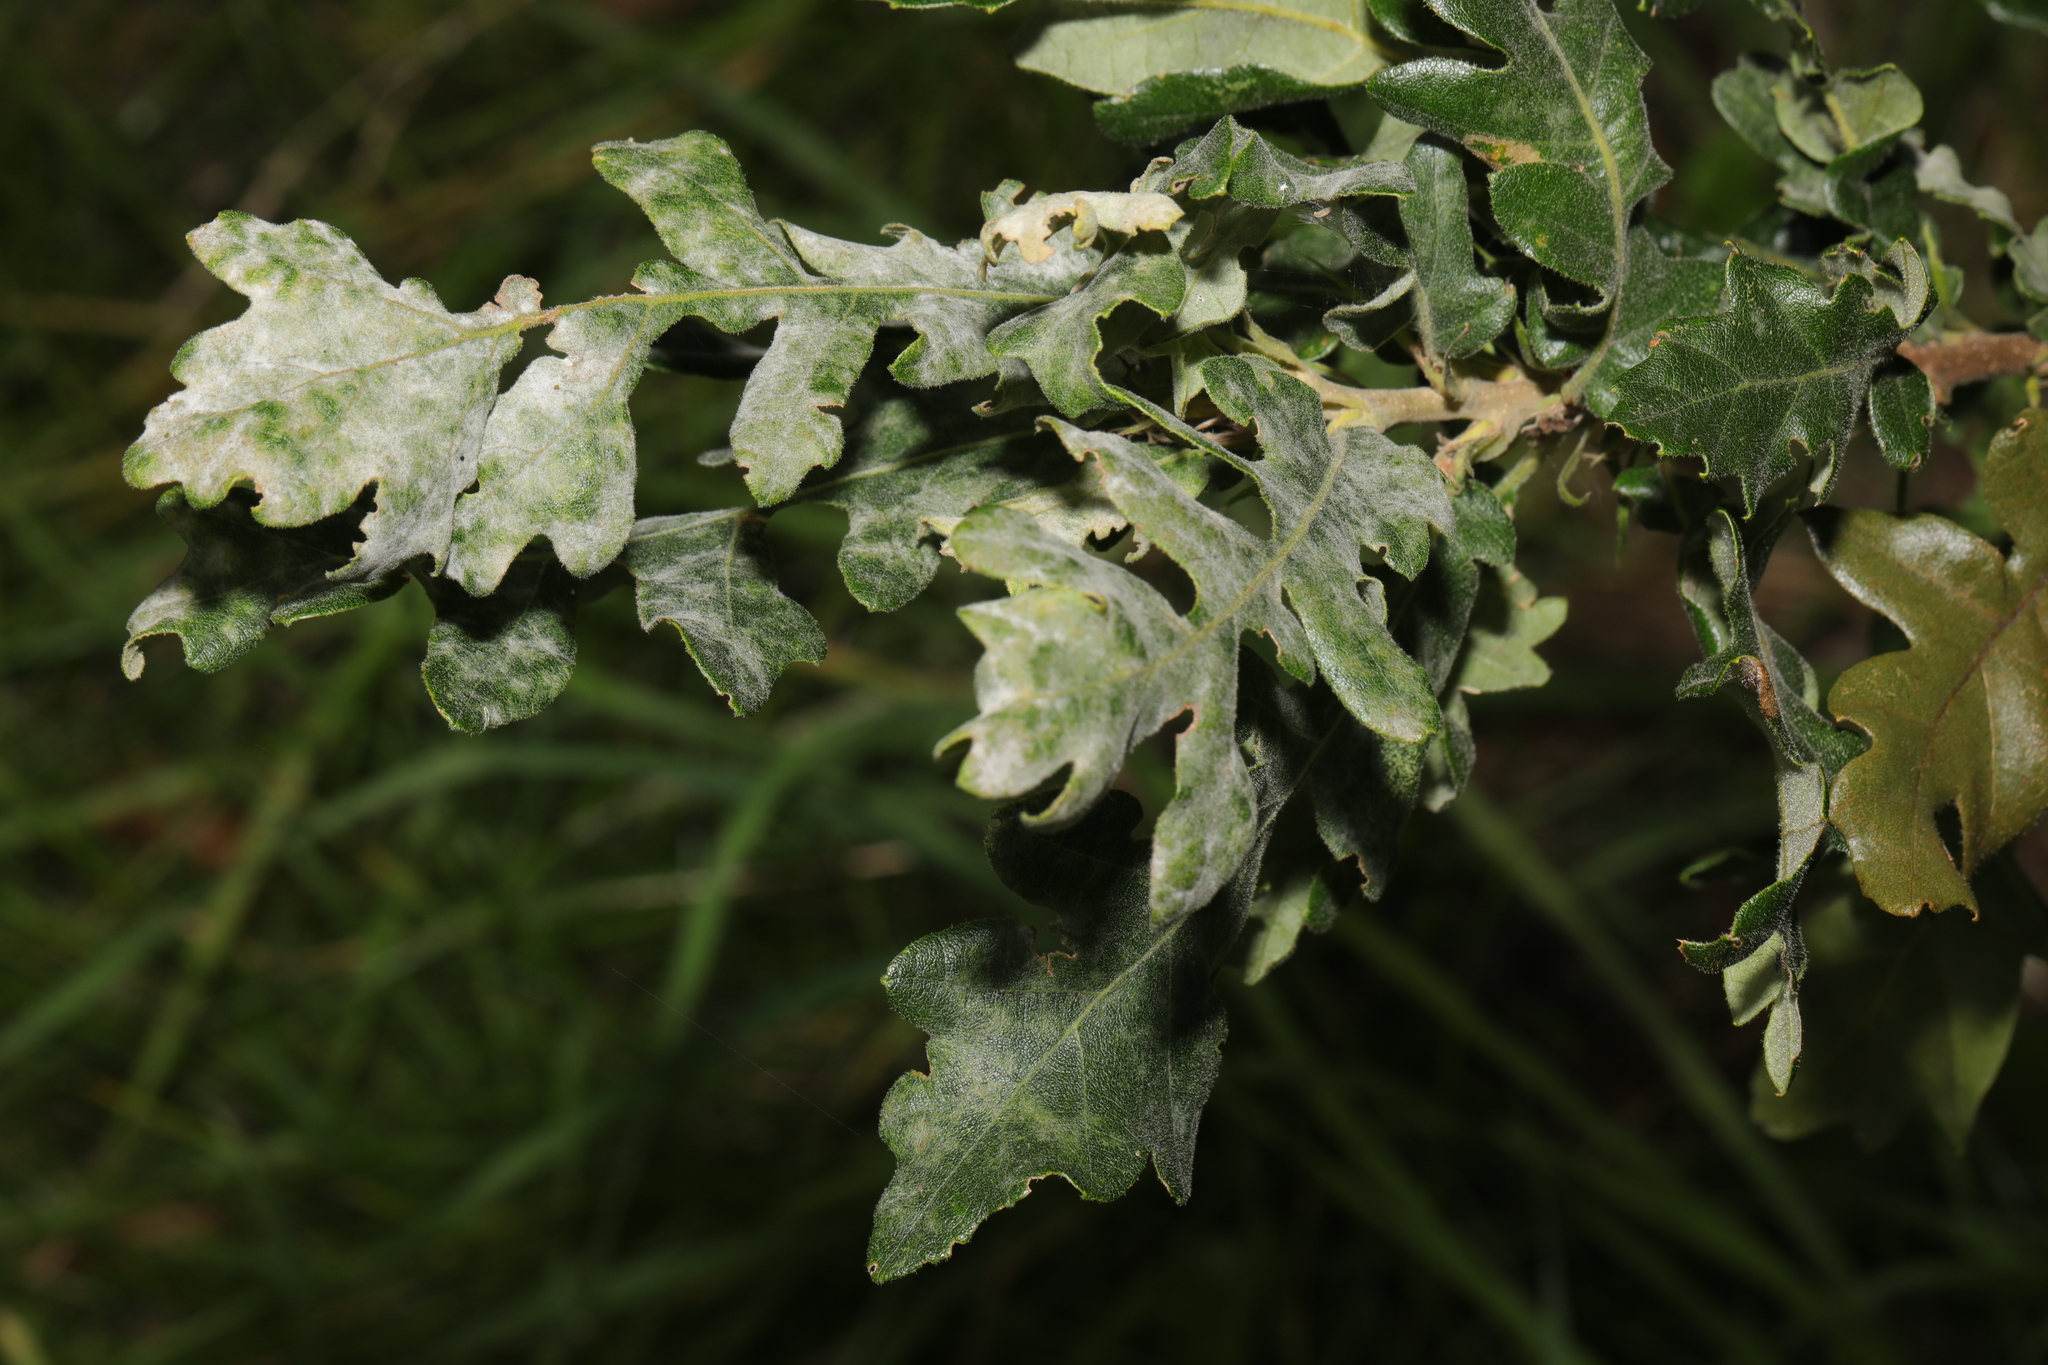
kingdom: Plantae
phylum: Tracheophyta
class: Magnoliopsida
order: Fagales
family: Fagaceae
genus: Quercus
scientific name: Quercus cerris
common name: Turkey oak
